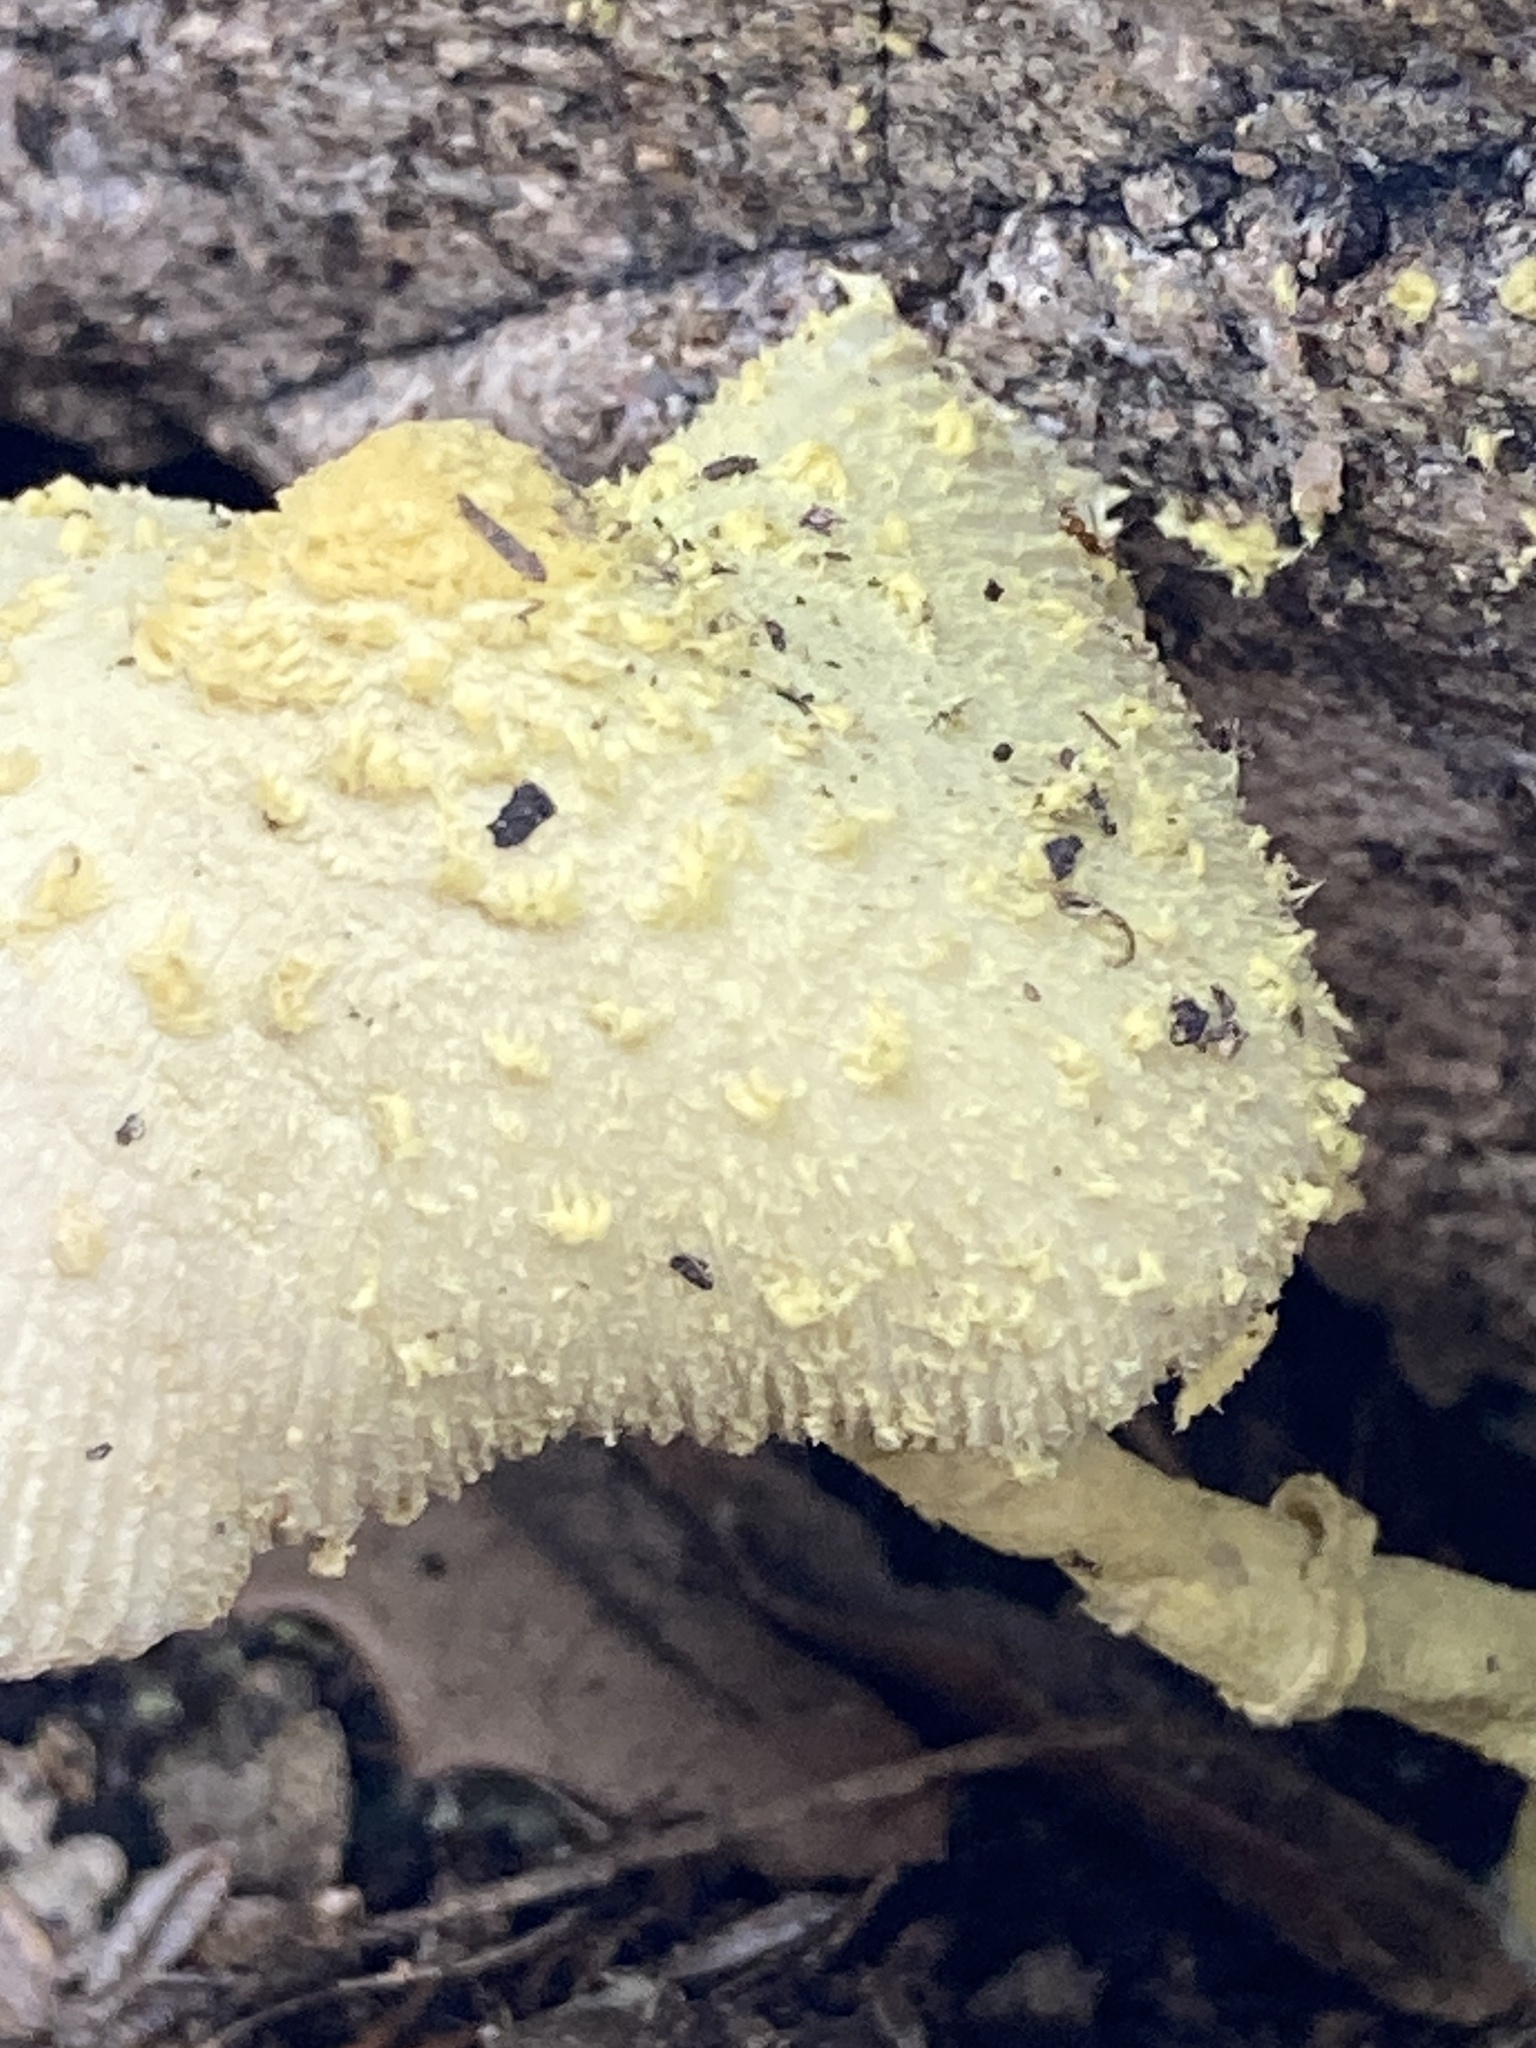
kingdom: Fungi
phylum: Basidiomycota
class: Agaricomycetes
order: Agaricales
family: Agaricaceae
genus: Leucocoprinus
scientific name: Leucocoprinus birnbaumii
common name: Plantpot dapperling
